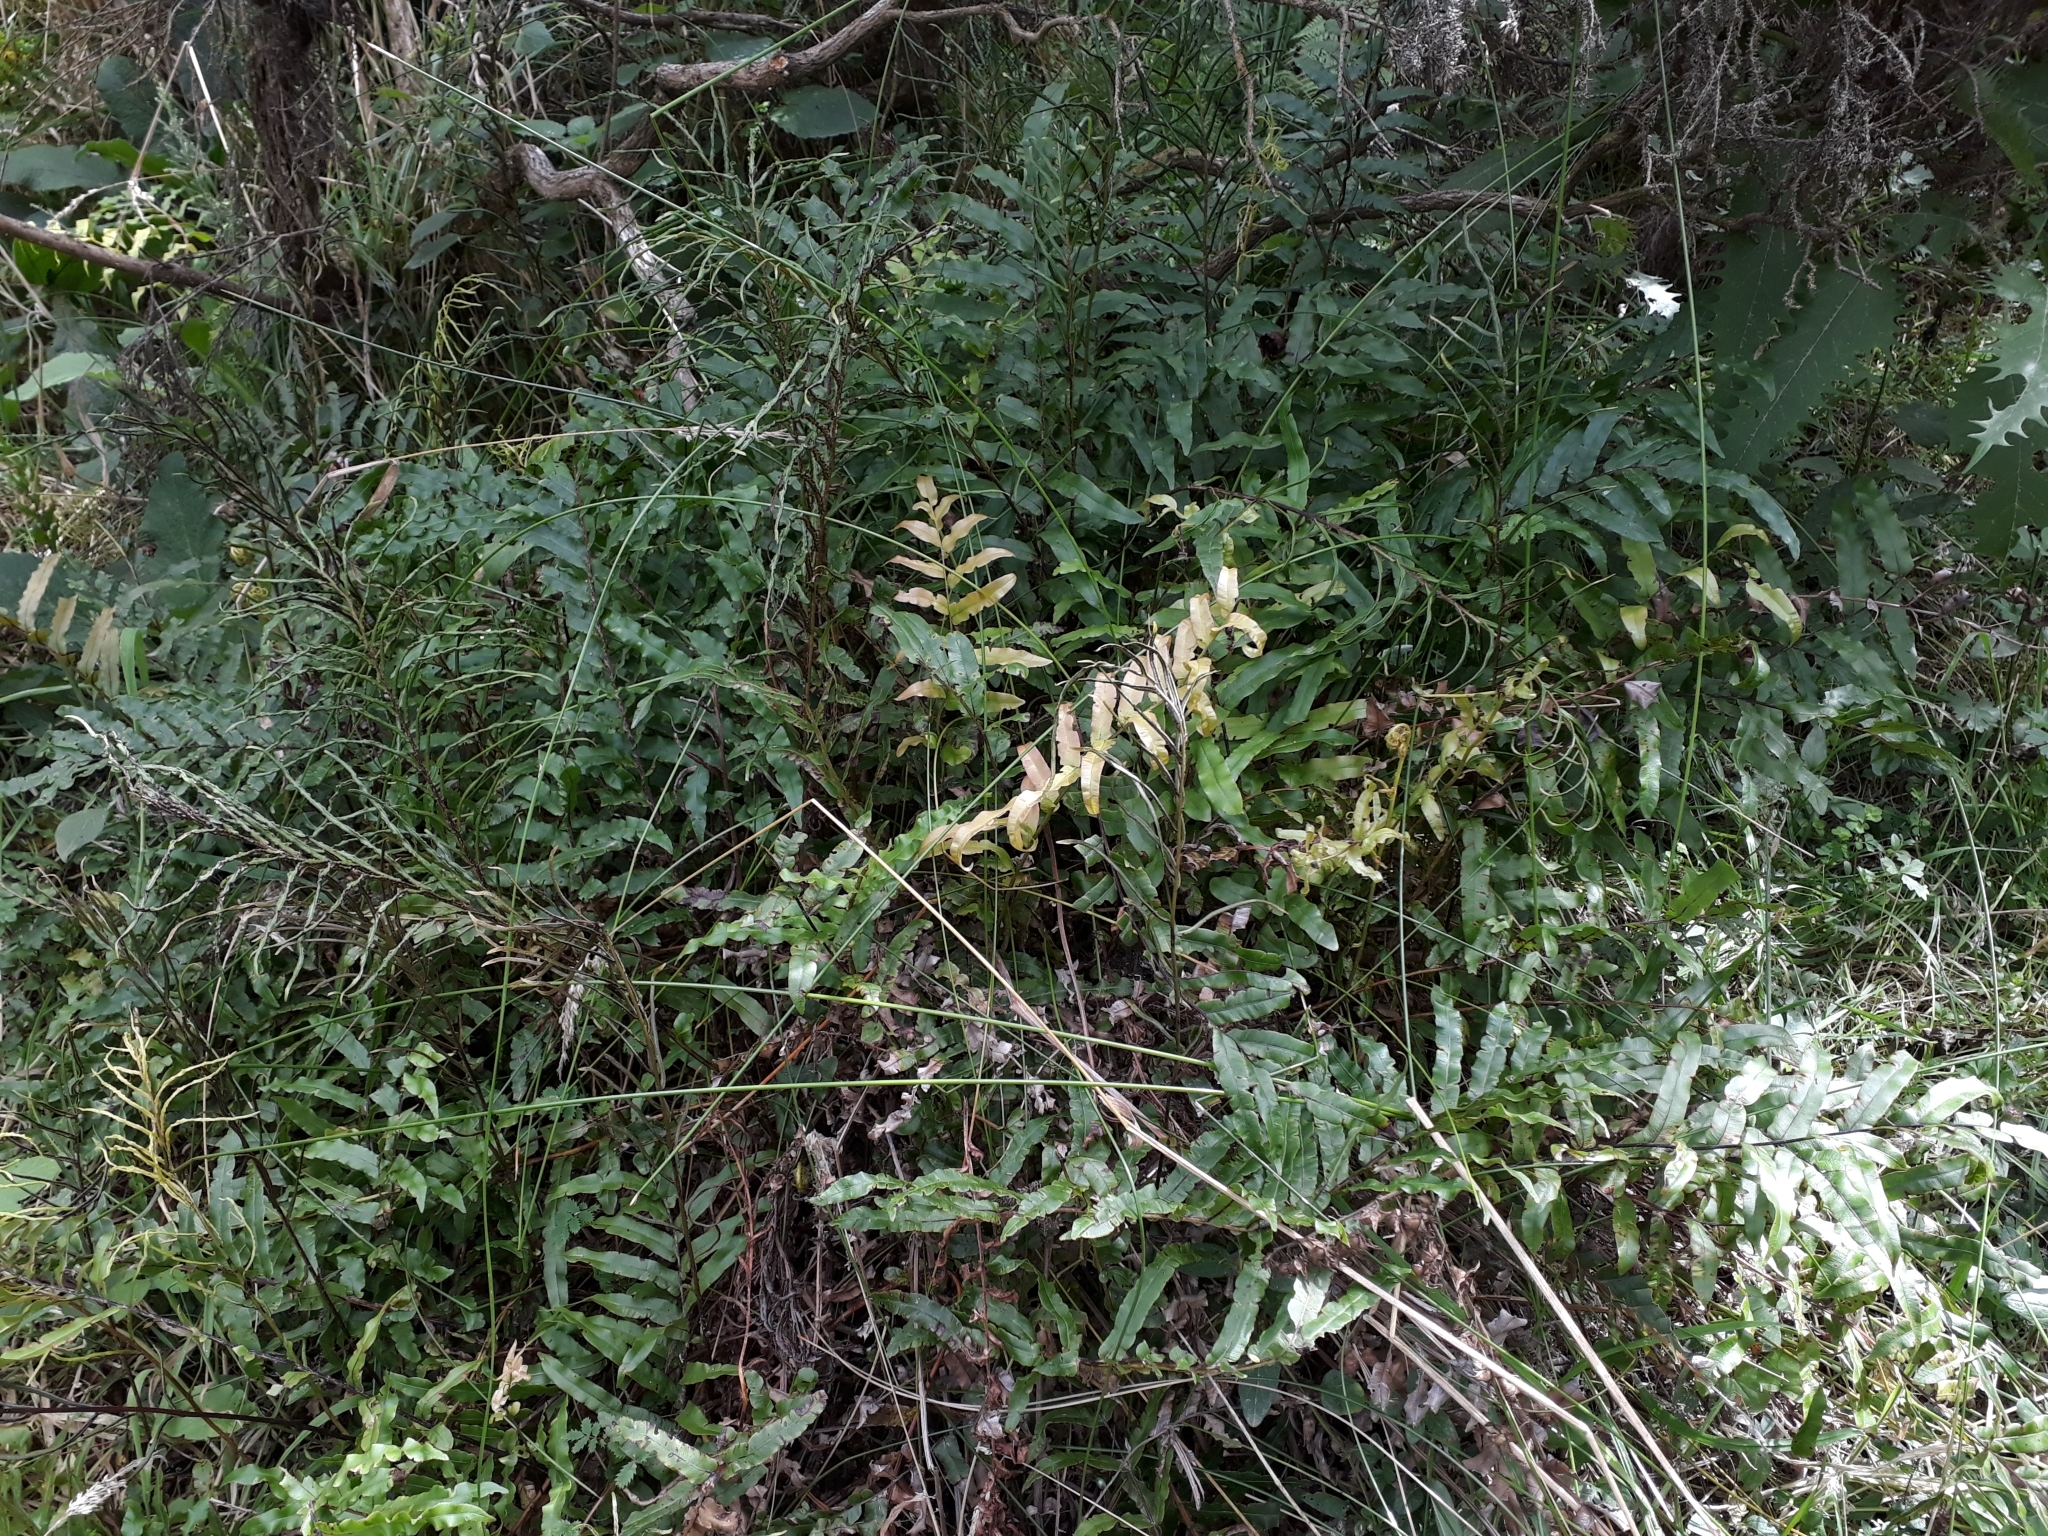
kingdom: Plantae
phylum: Tracheophyta
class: Polypodiopsida
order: Polypodiales
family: Blechnaceae
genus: Parablechnum
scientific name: Parablechnum minus
